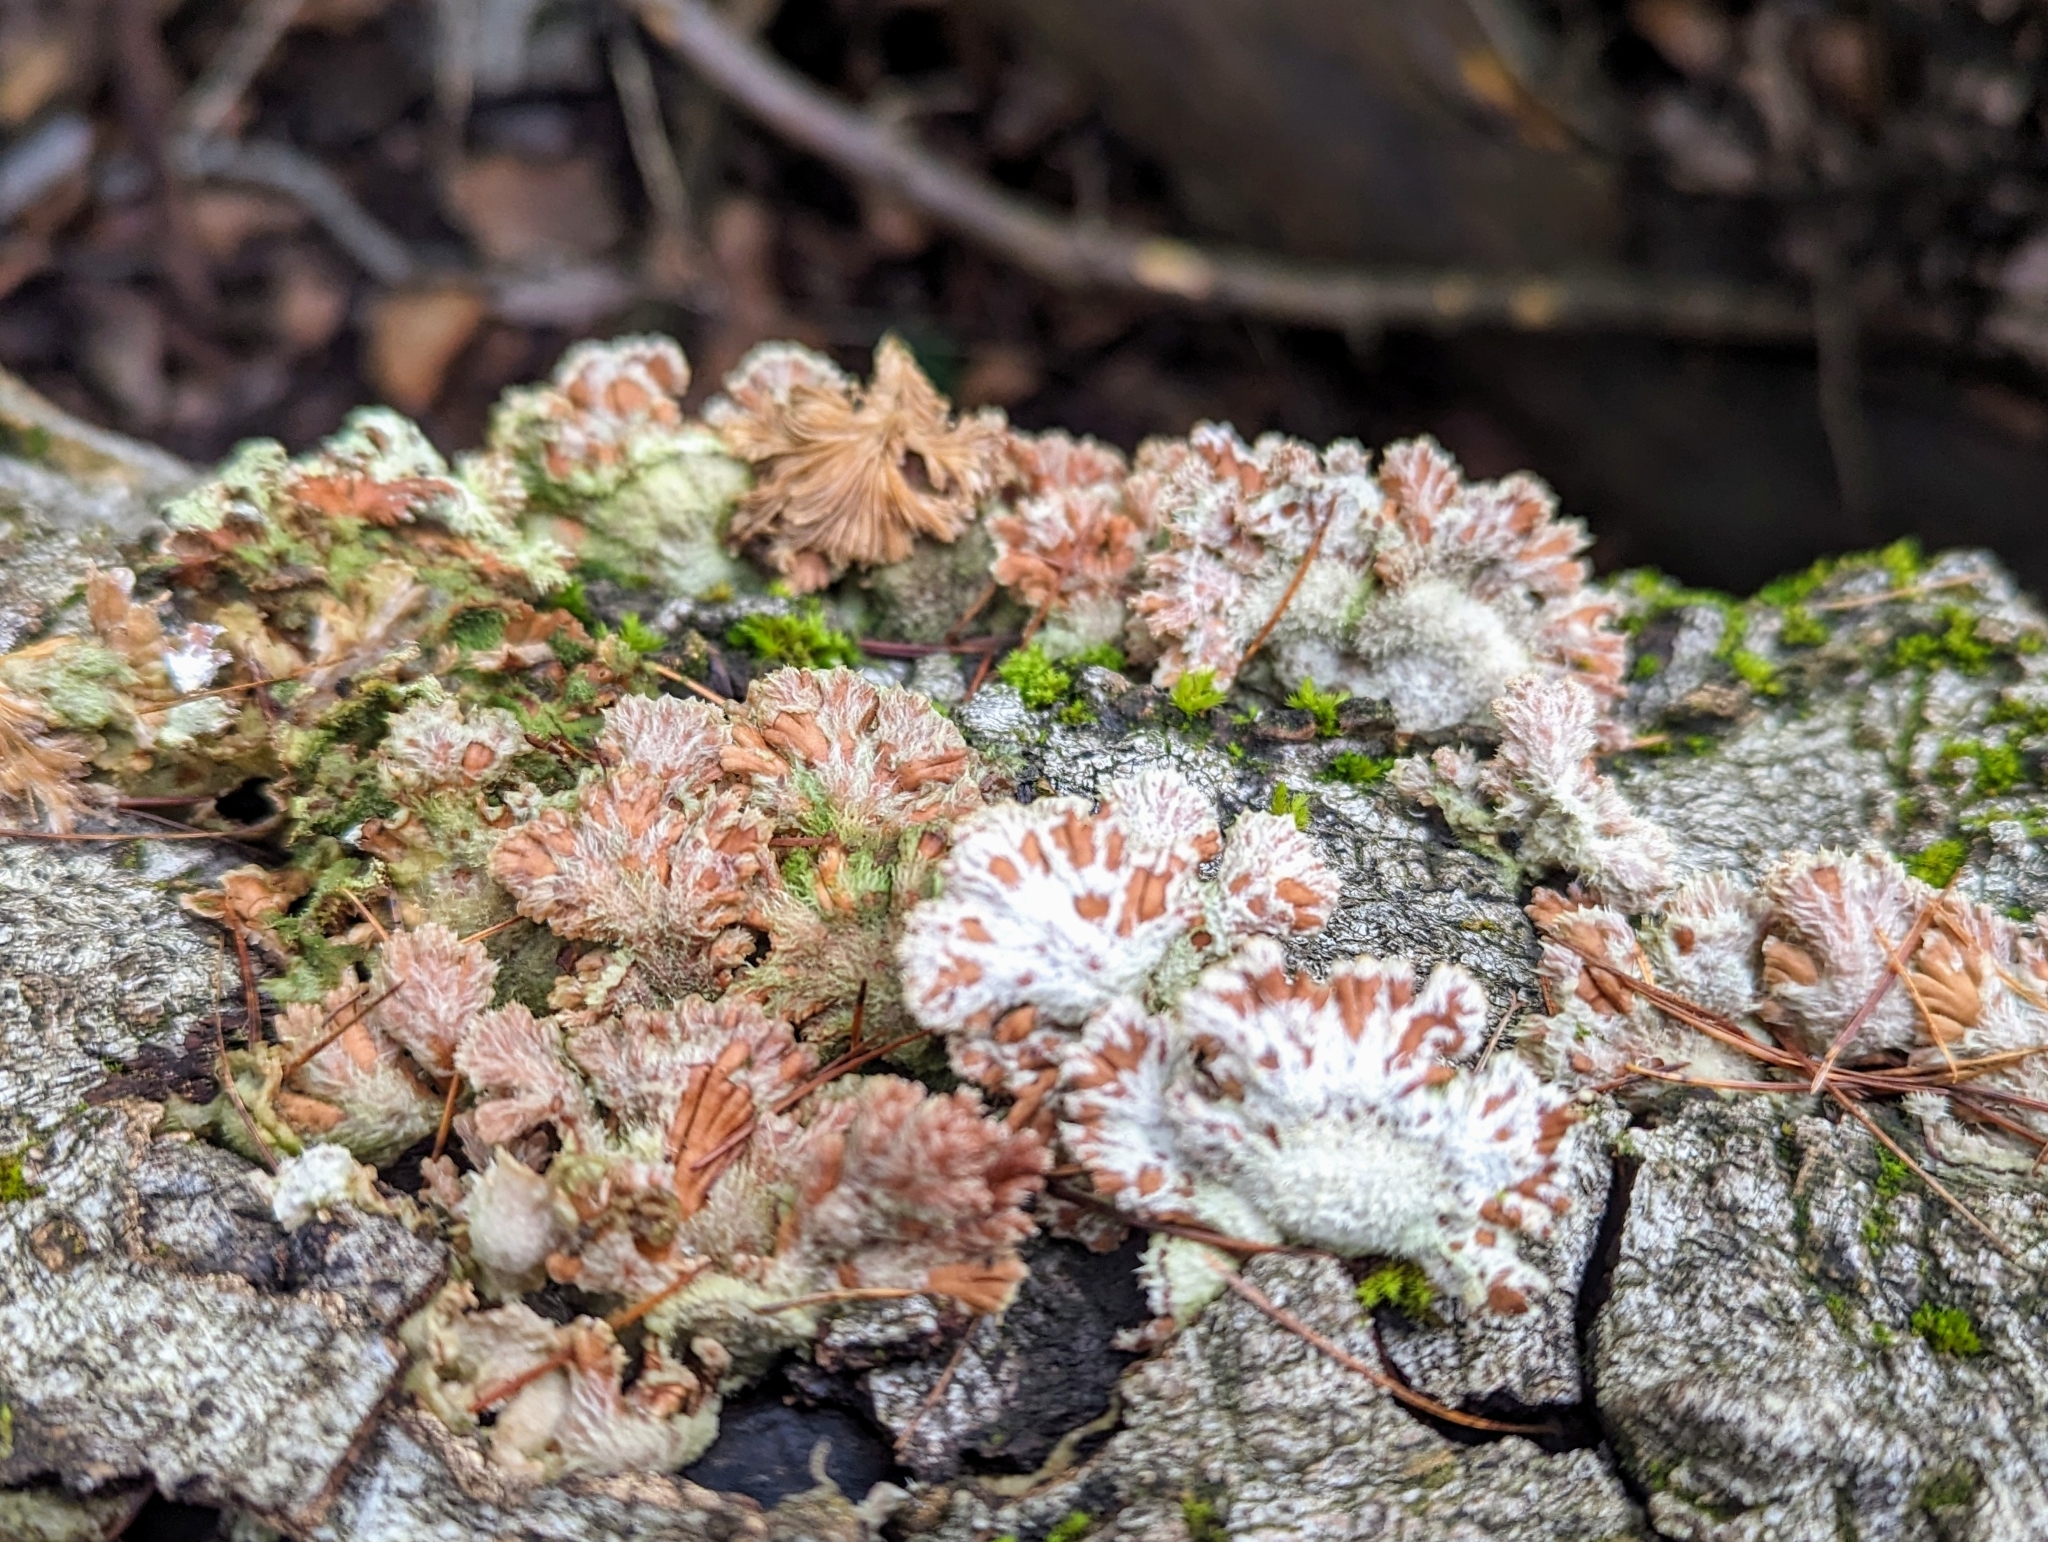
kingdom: Fungi
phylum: Basidiomycota
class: Agaricomycetes
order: Agaricales
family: Schizophyllaceae
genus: Schizophyllum
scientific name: Schizophyllum commune
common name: Common porecrust
